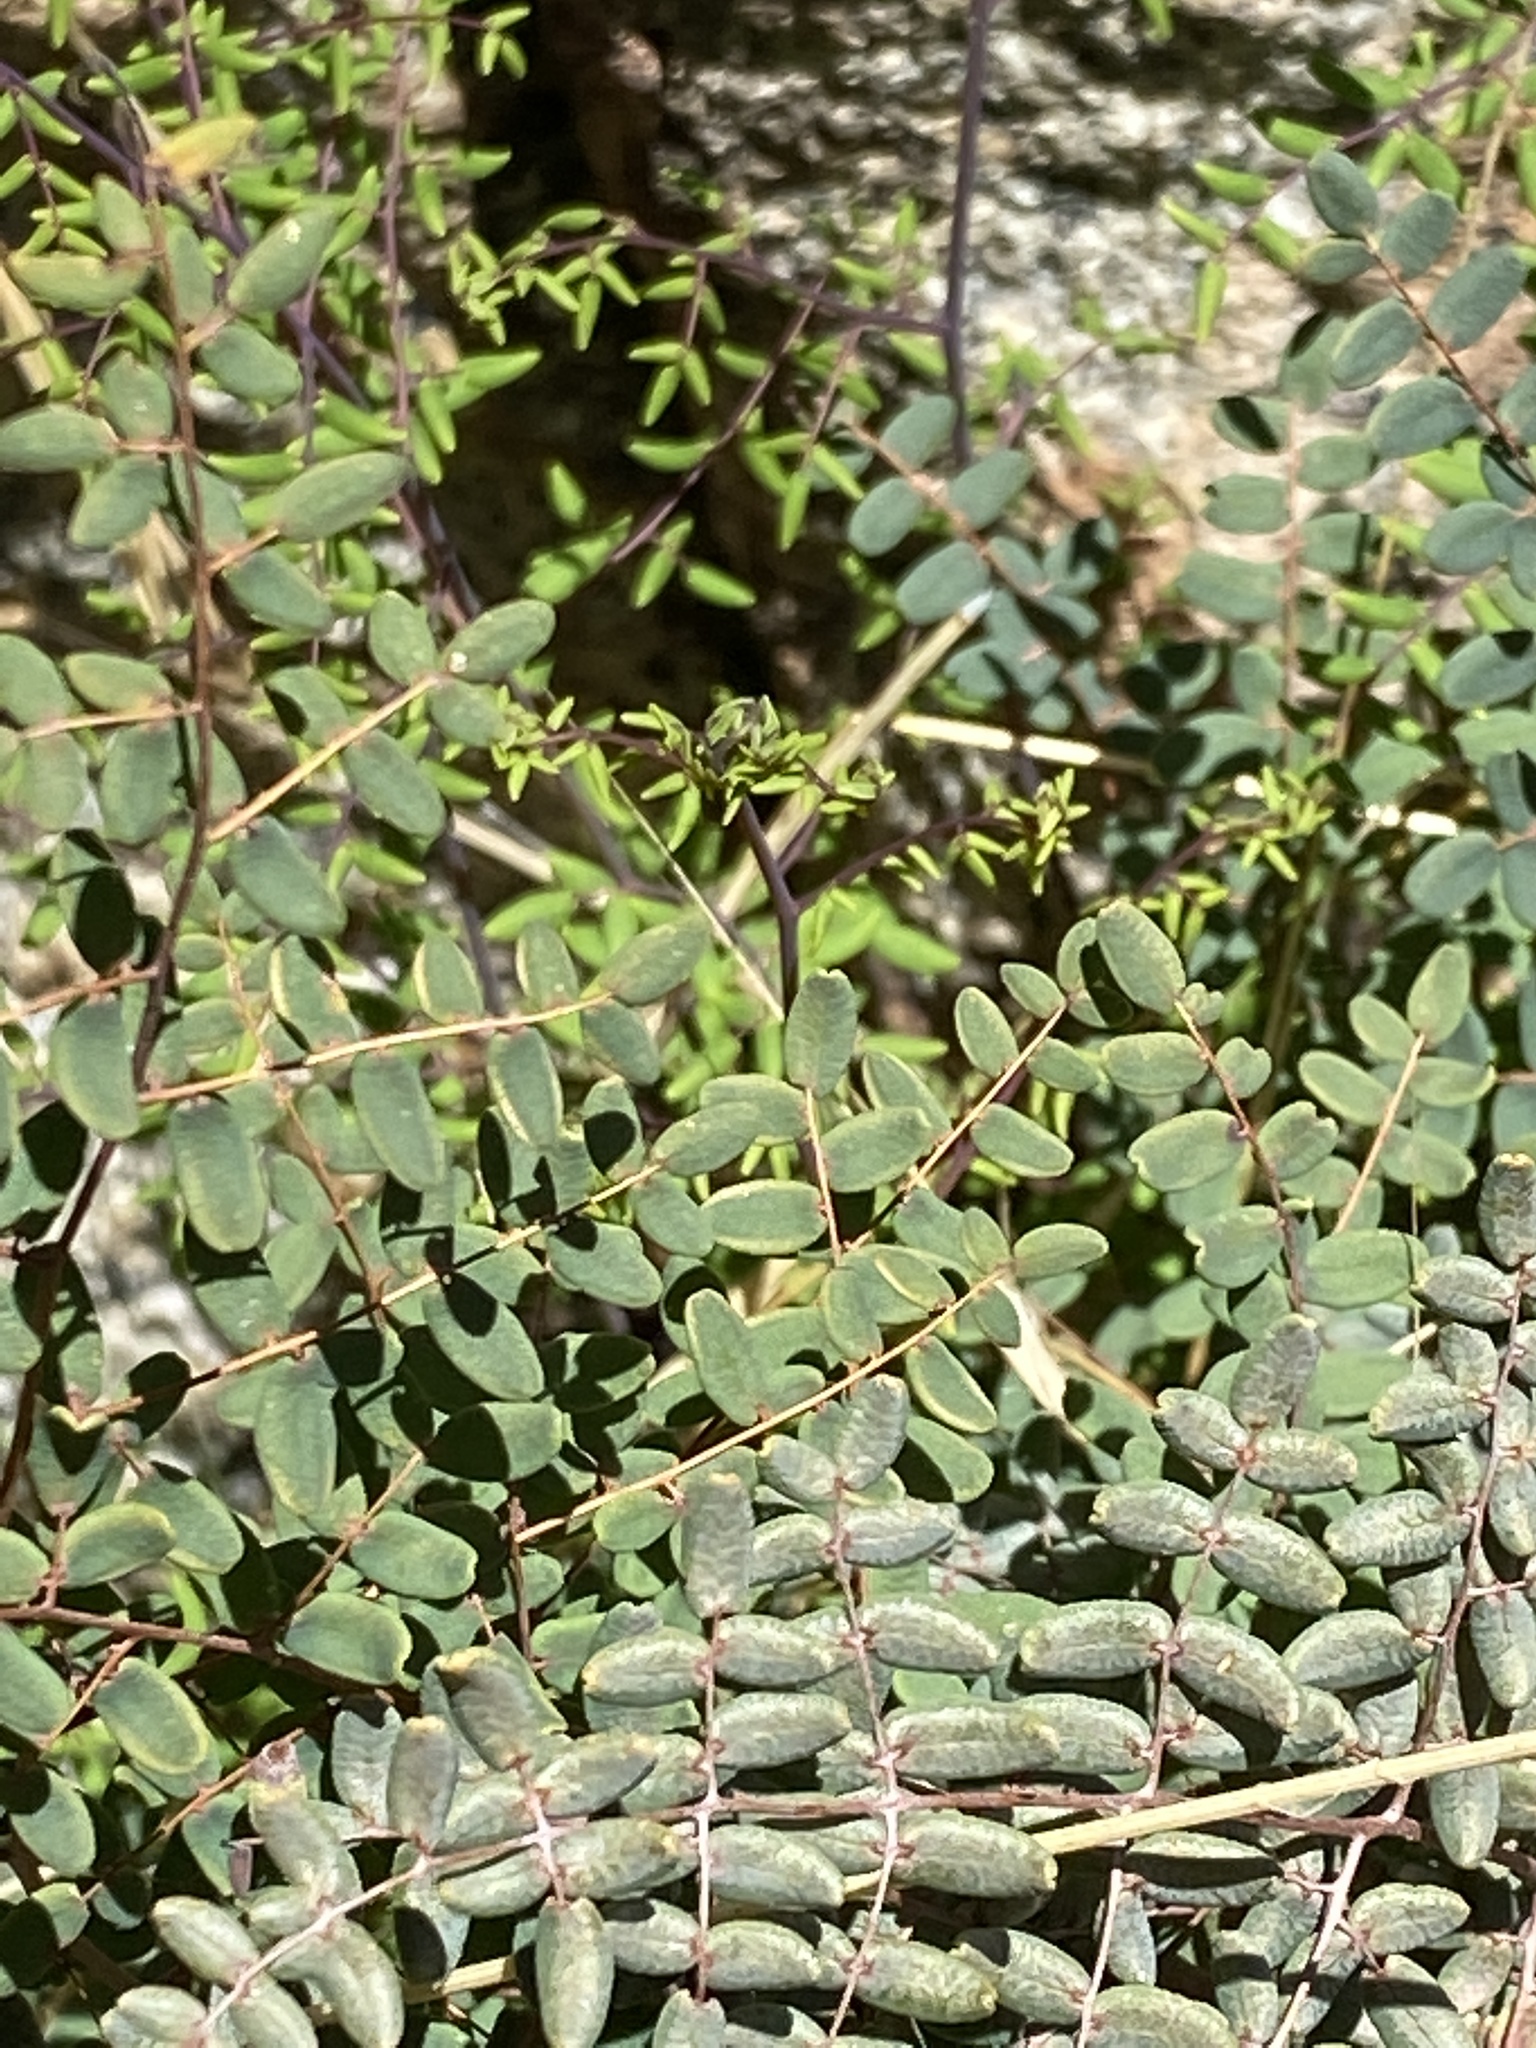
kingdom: Plantae
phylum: Tracheophyta
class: Polypodiopsida
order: Polypodiales
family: Pteridaceae
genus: Pellaea
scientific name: Pellaea andromedifolia
